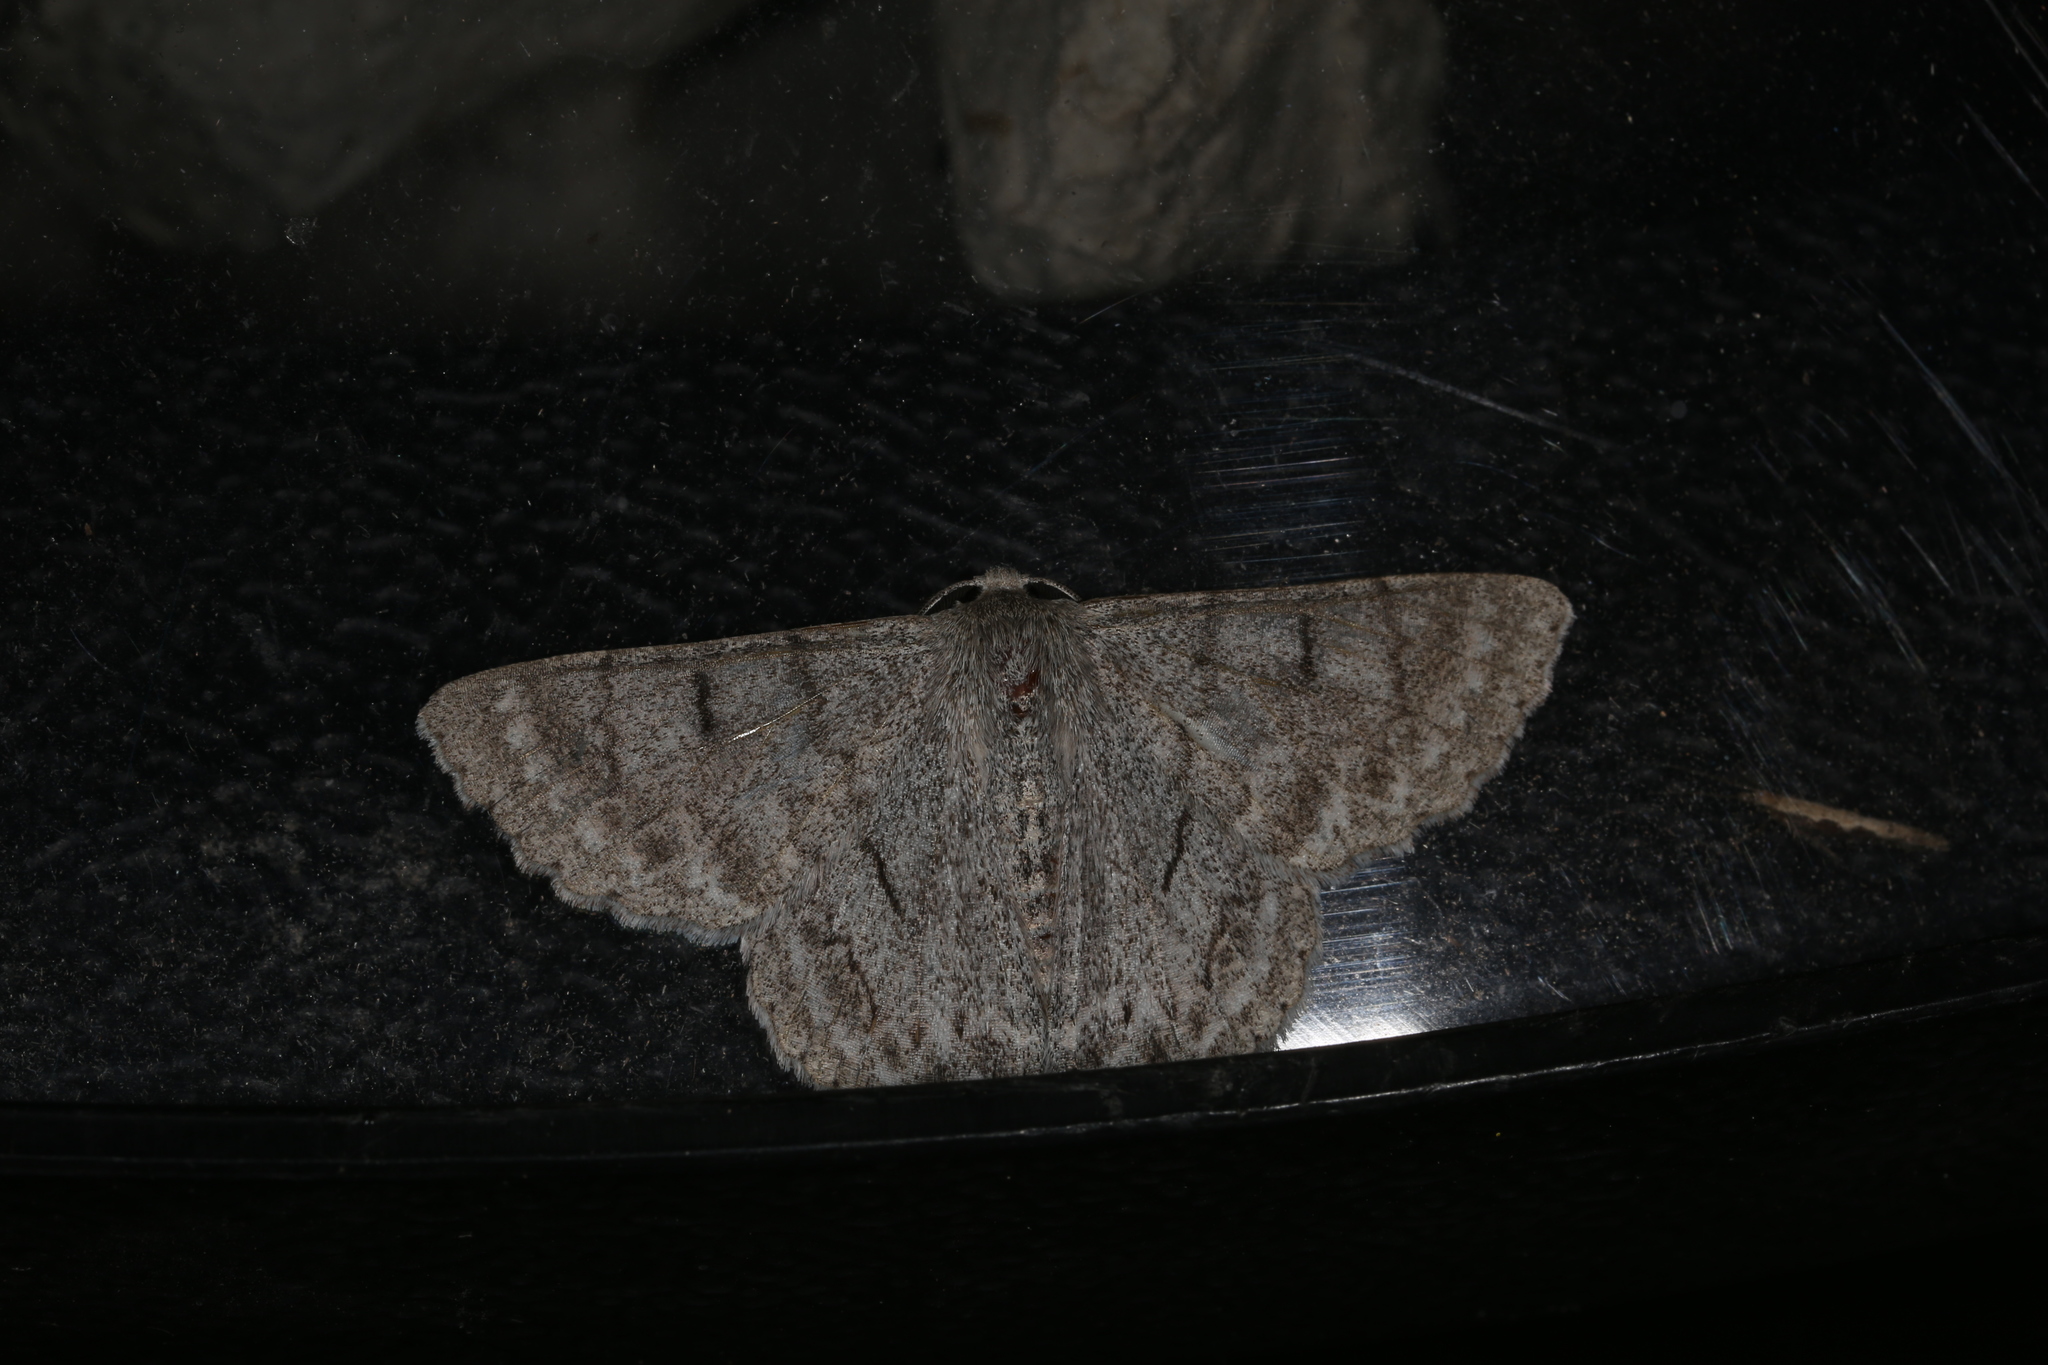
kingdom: Animalia
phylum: Arthropoda
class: Insecta
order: Lepidoptera
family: Geometridae
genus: Crypsiphona
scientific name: Crypsiphona ocultaria
